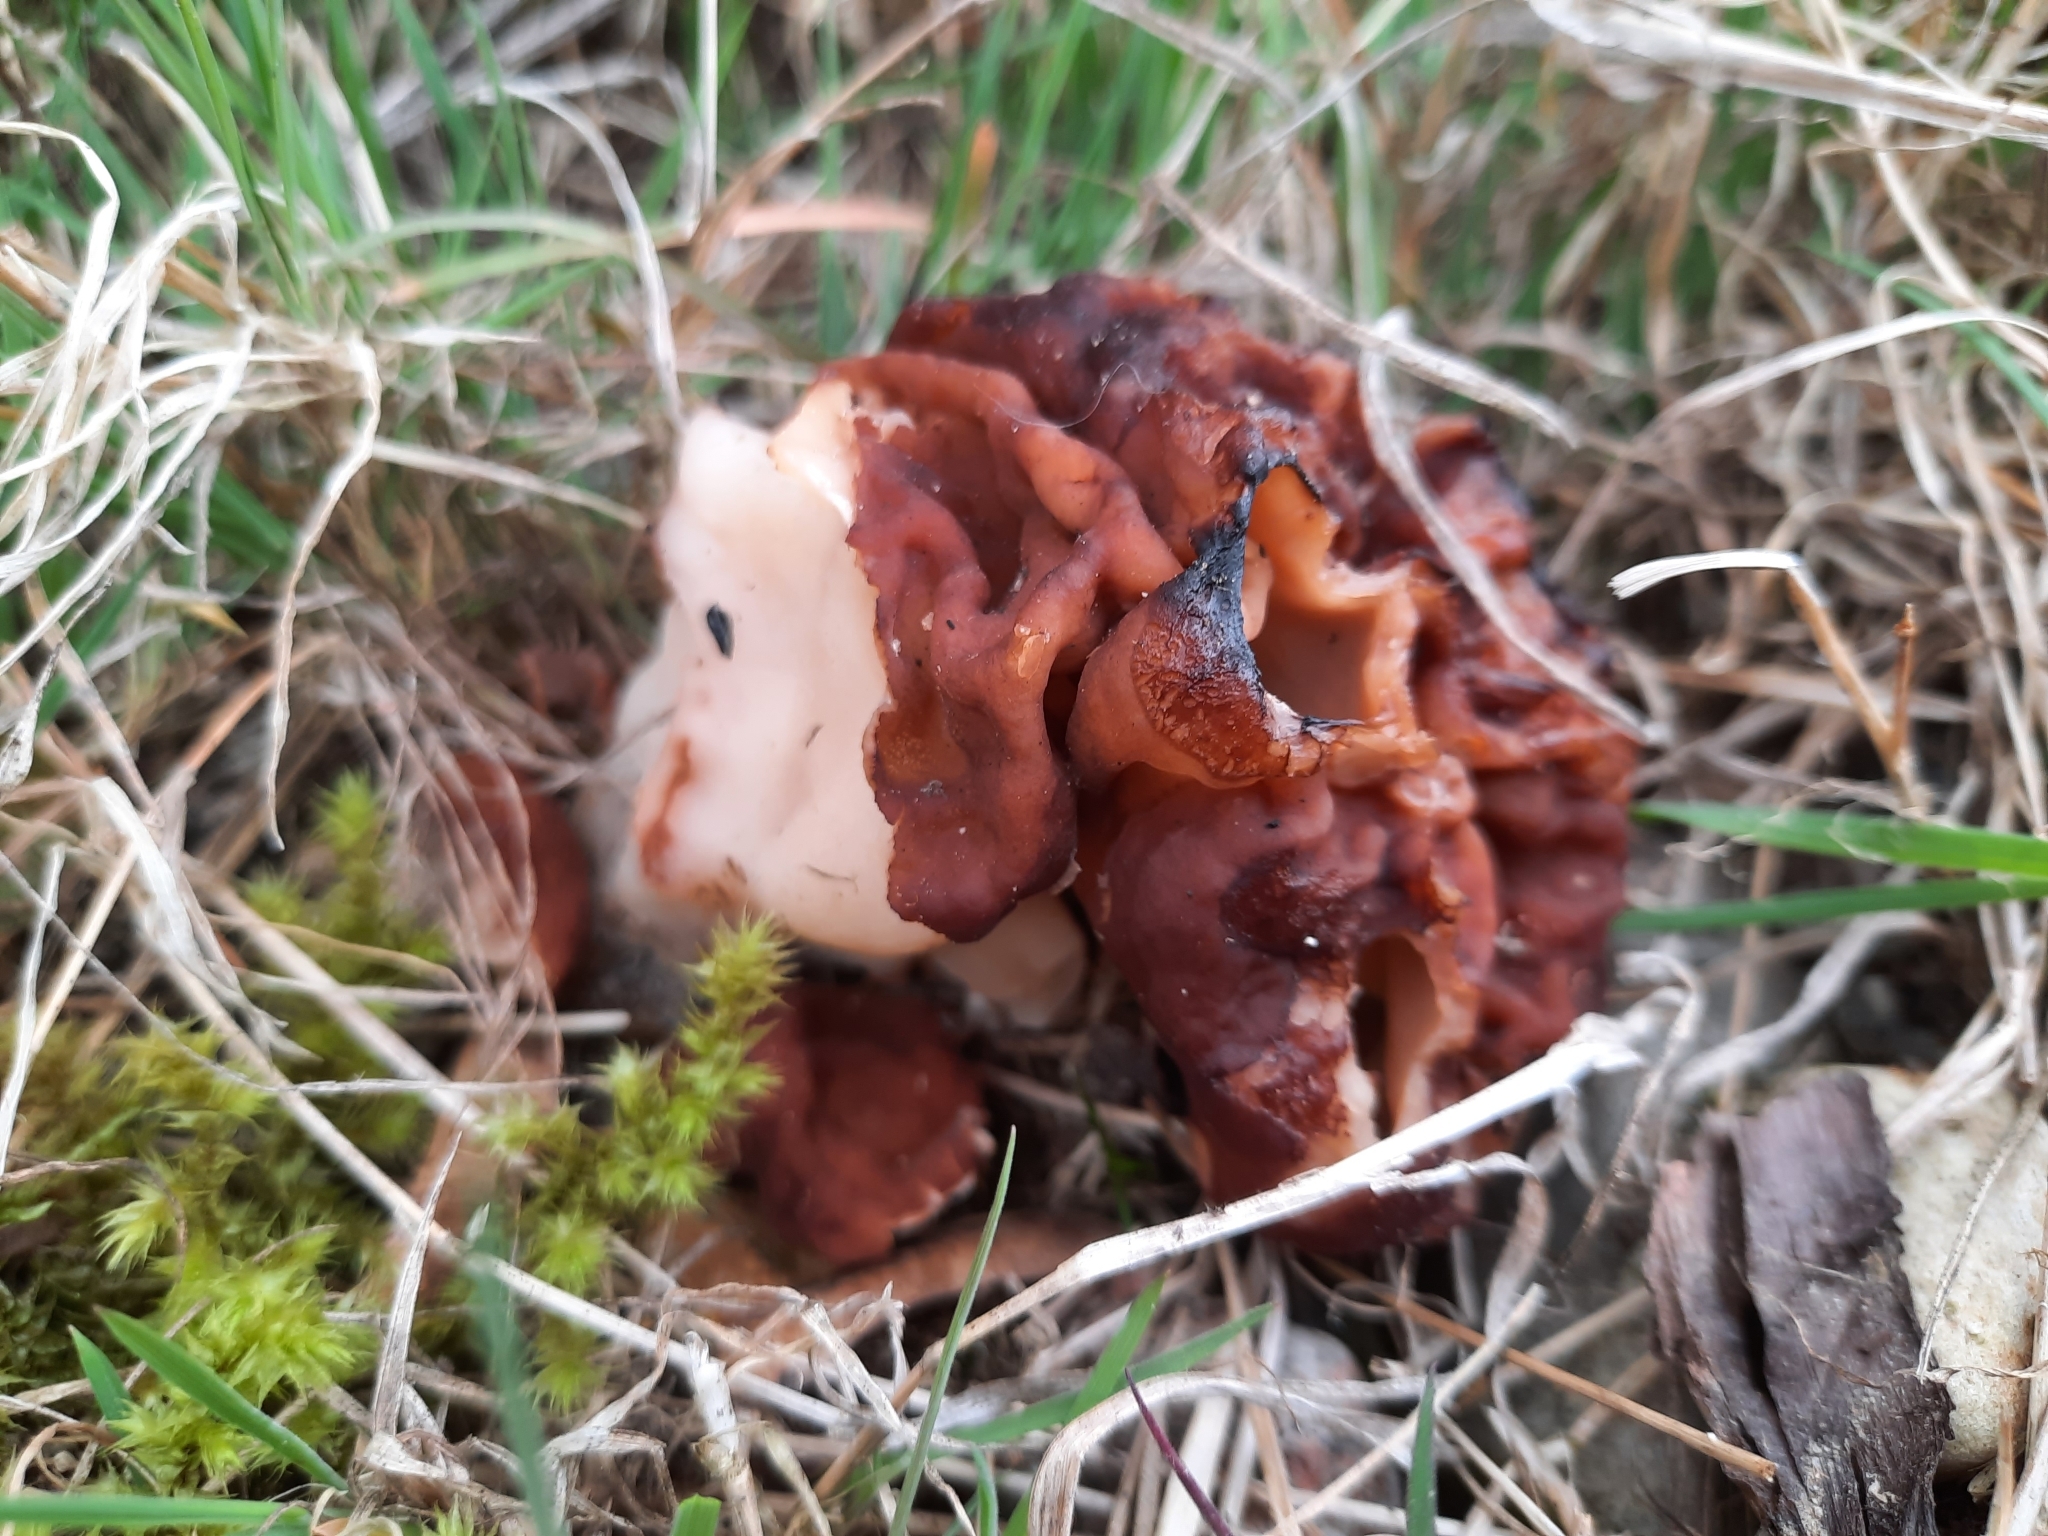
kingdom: Fungi
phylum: Ascomycota
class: Pezizomycetes
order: Pezizales
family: Discinaceae
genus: Gyromitra
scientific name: Gyromitra esculenta
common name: False morel
